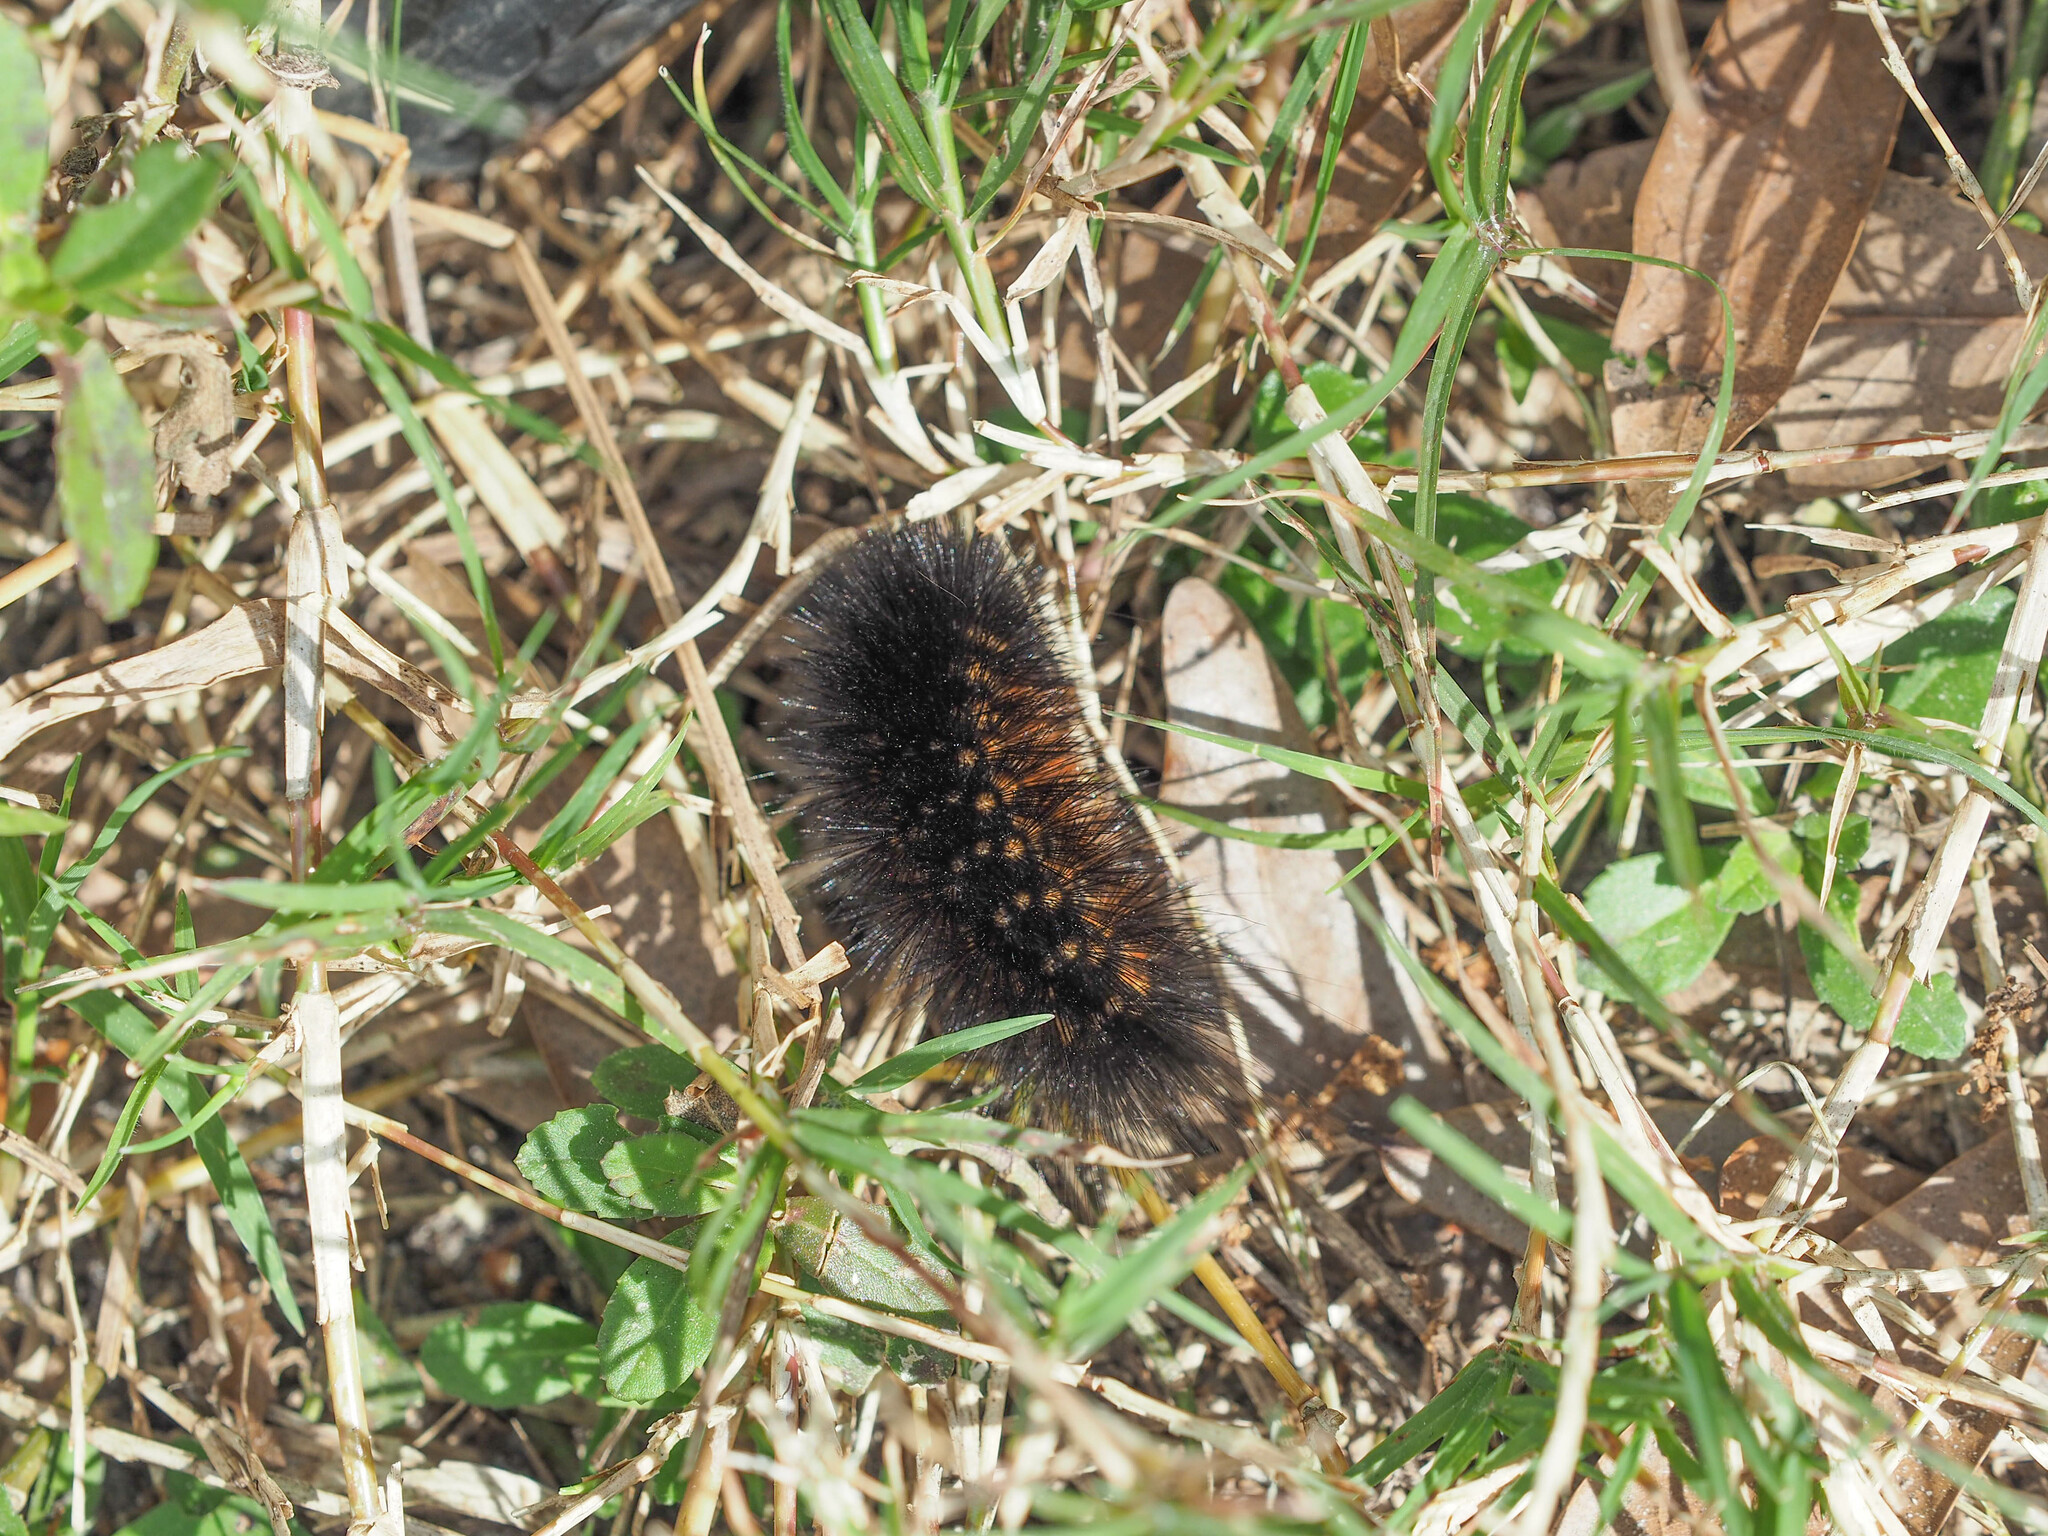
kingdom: Animalia
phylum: Arthropoda
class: Insecta
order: Lepidoptera
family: Erebidae
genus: Estigmene
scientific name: Estigmene acrea
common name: Salt marsh moth
